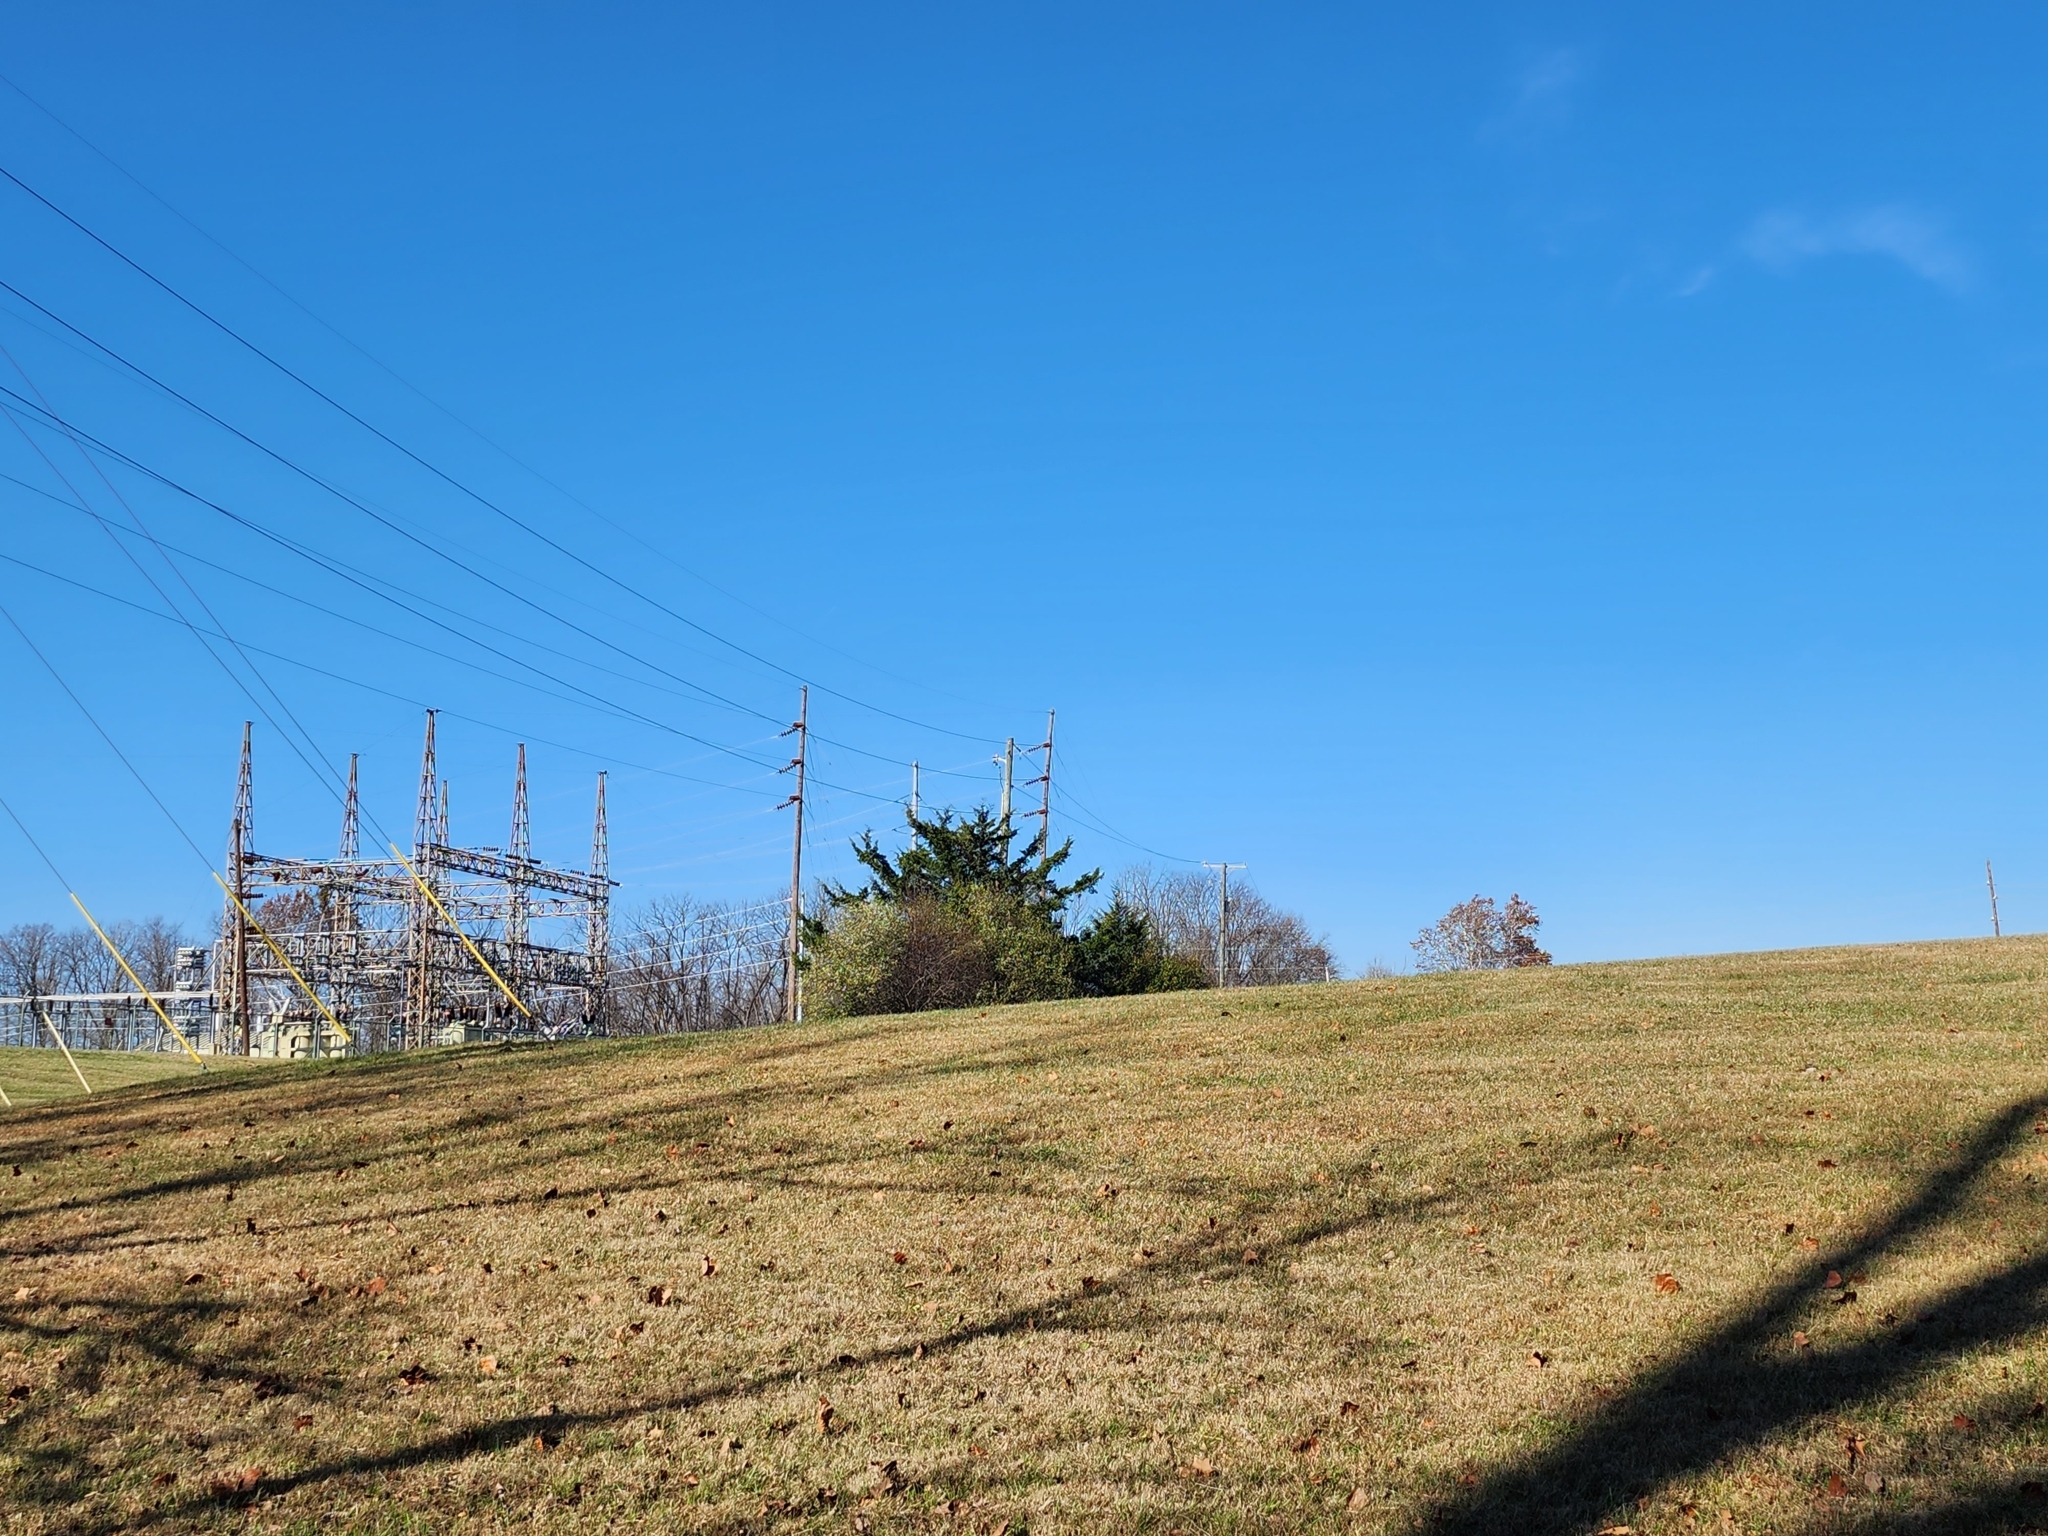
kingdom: Plantae
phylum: Tracheophyta
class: Pinopsida
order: Pinales
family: Cupressaceae
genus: Juniperus
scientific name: Juniperus virginiana
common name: Red juniper
